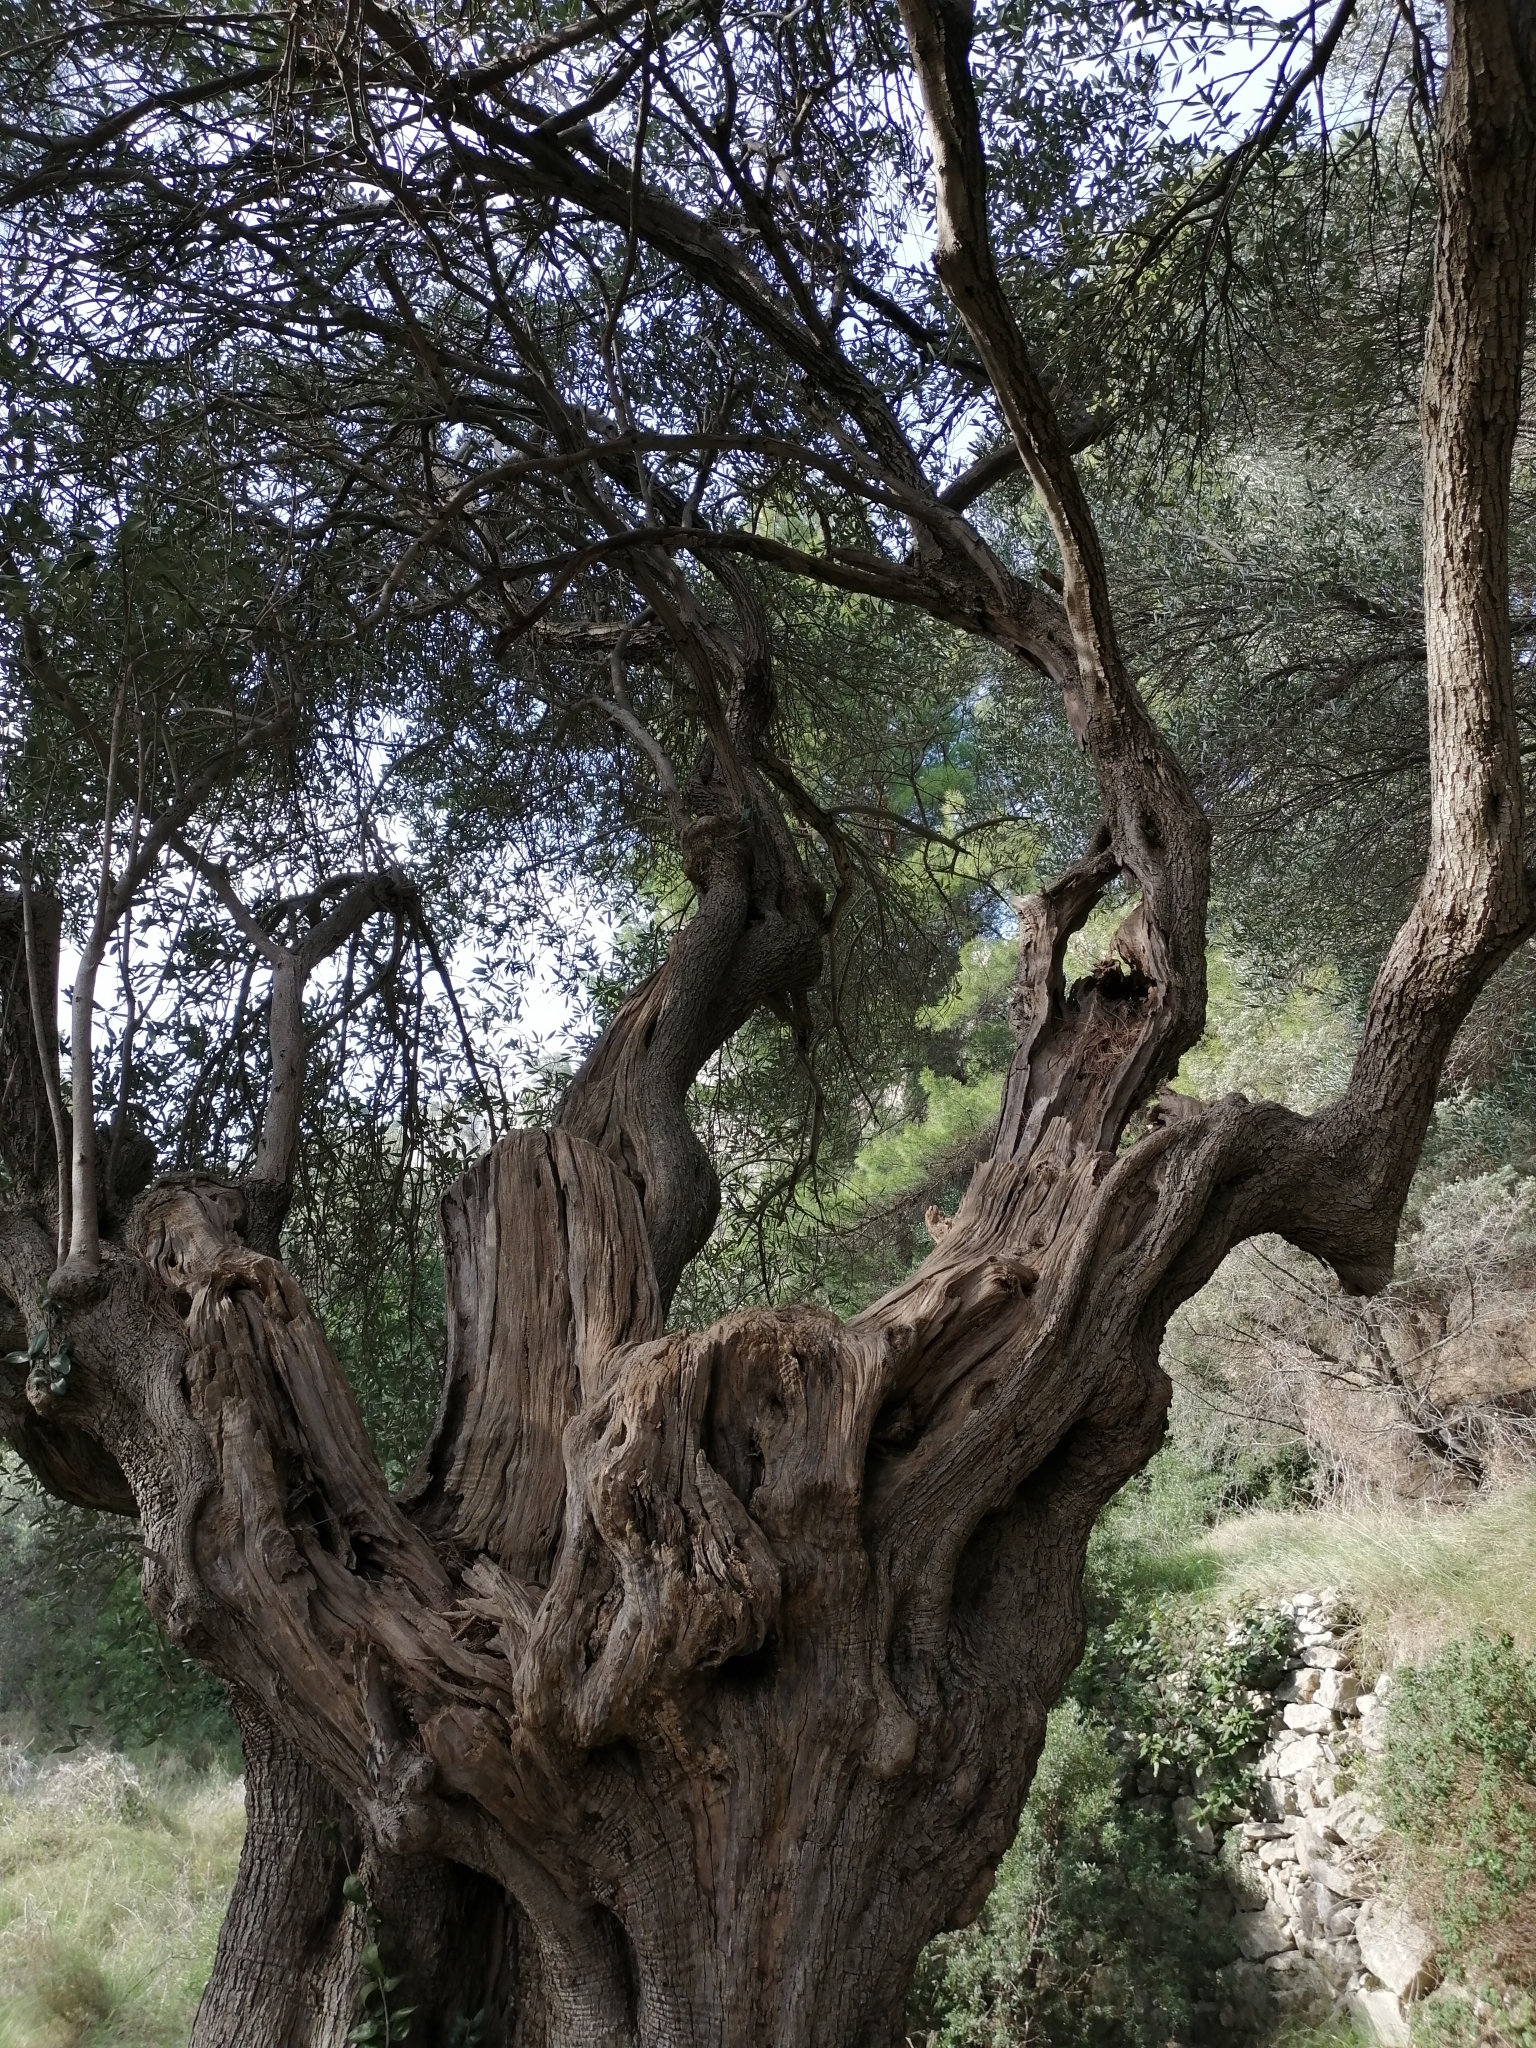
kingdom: Plantae
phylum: Tracheophyta
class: Magnoliopsida
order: Lamiales
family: Oleaceae
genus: Olea
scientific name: Olea europaea
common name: Olive
